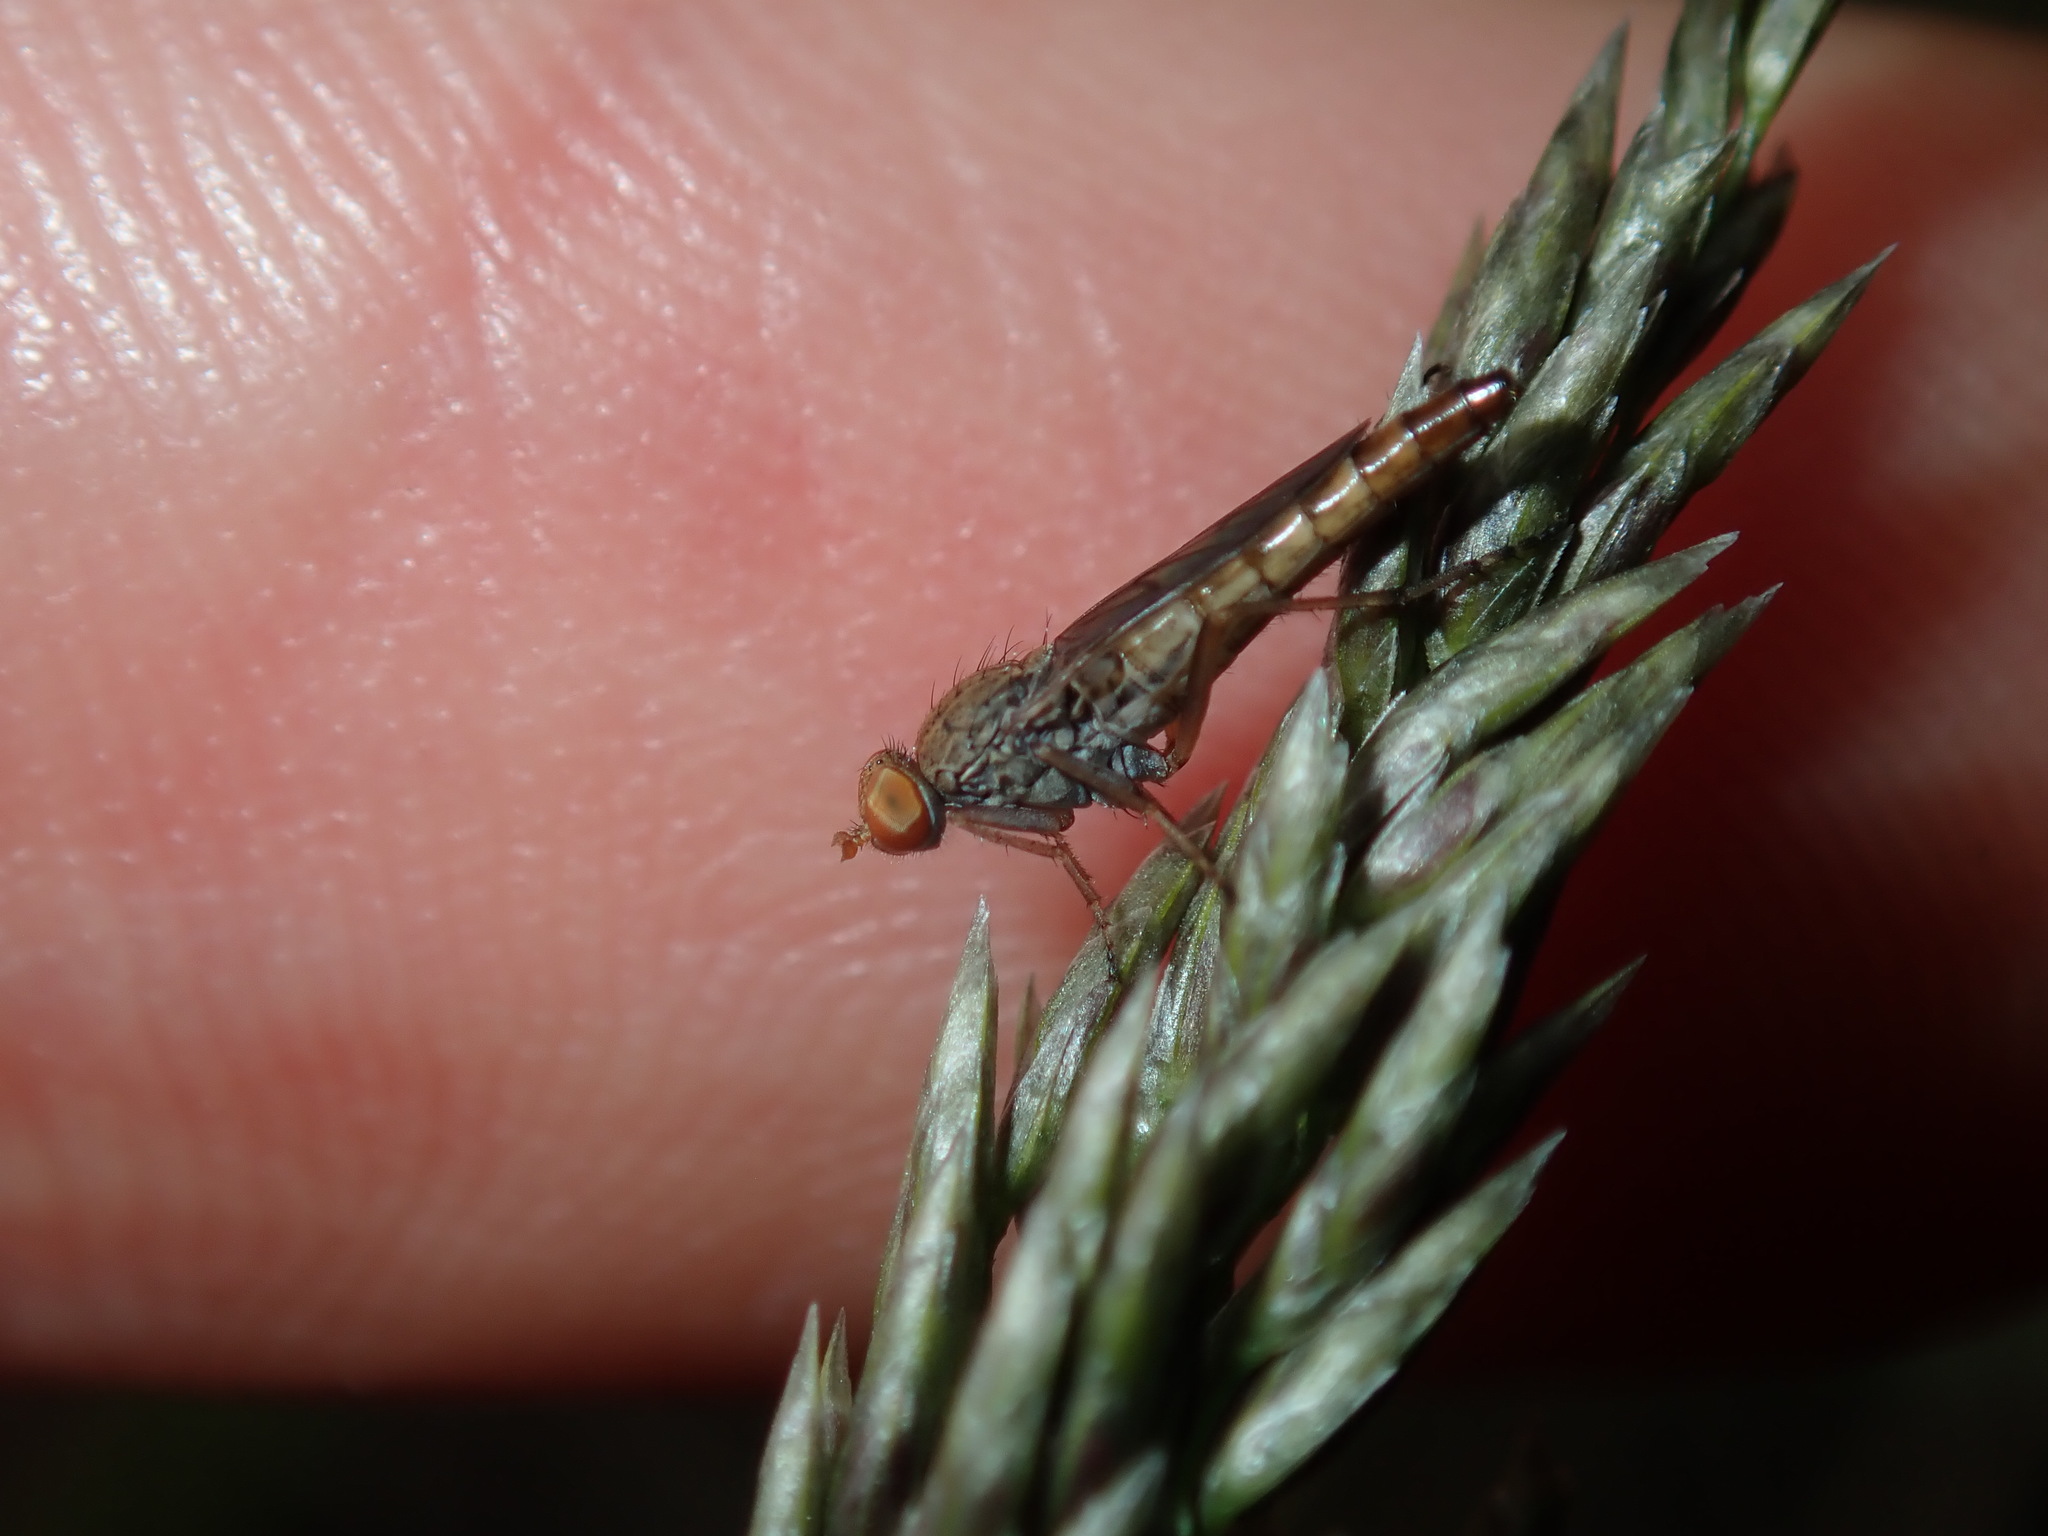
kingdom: Animalia
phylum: Arthropoda
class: Insecta
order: Diptera
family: Therevidae
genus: Neodialineura
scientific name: Neodialineura nitens
